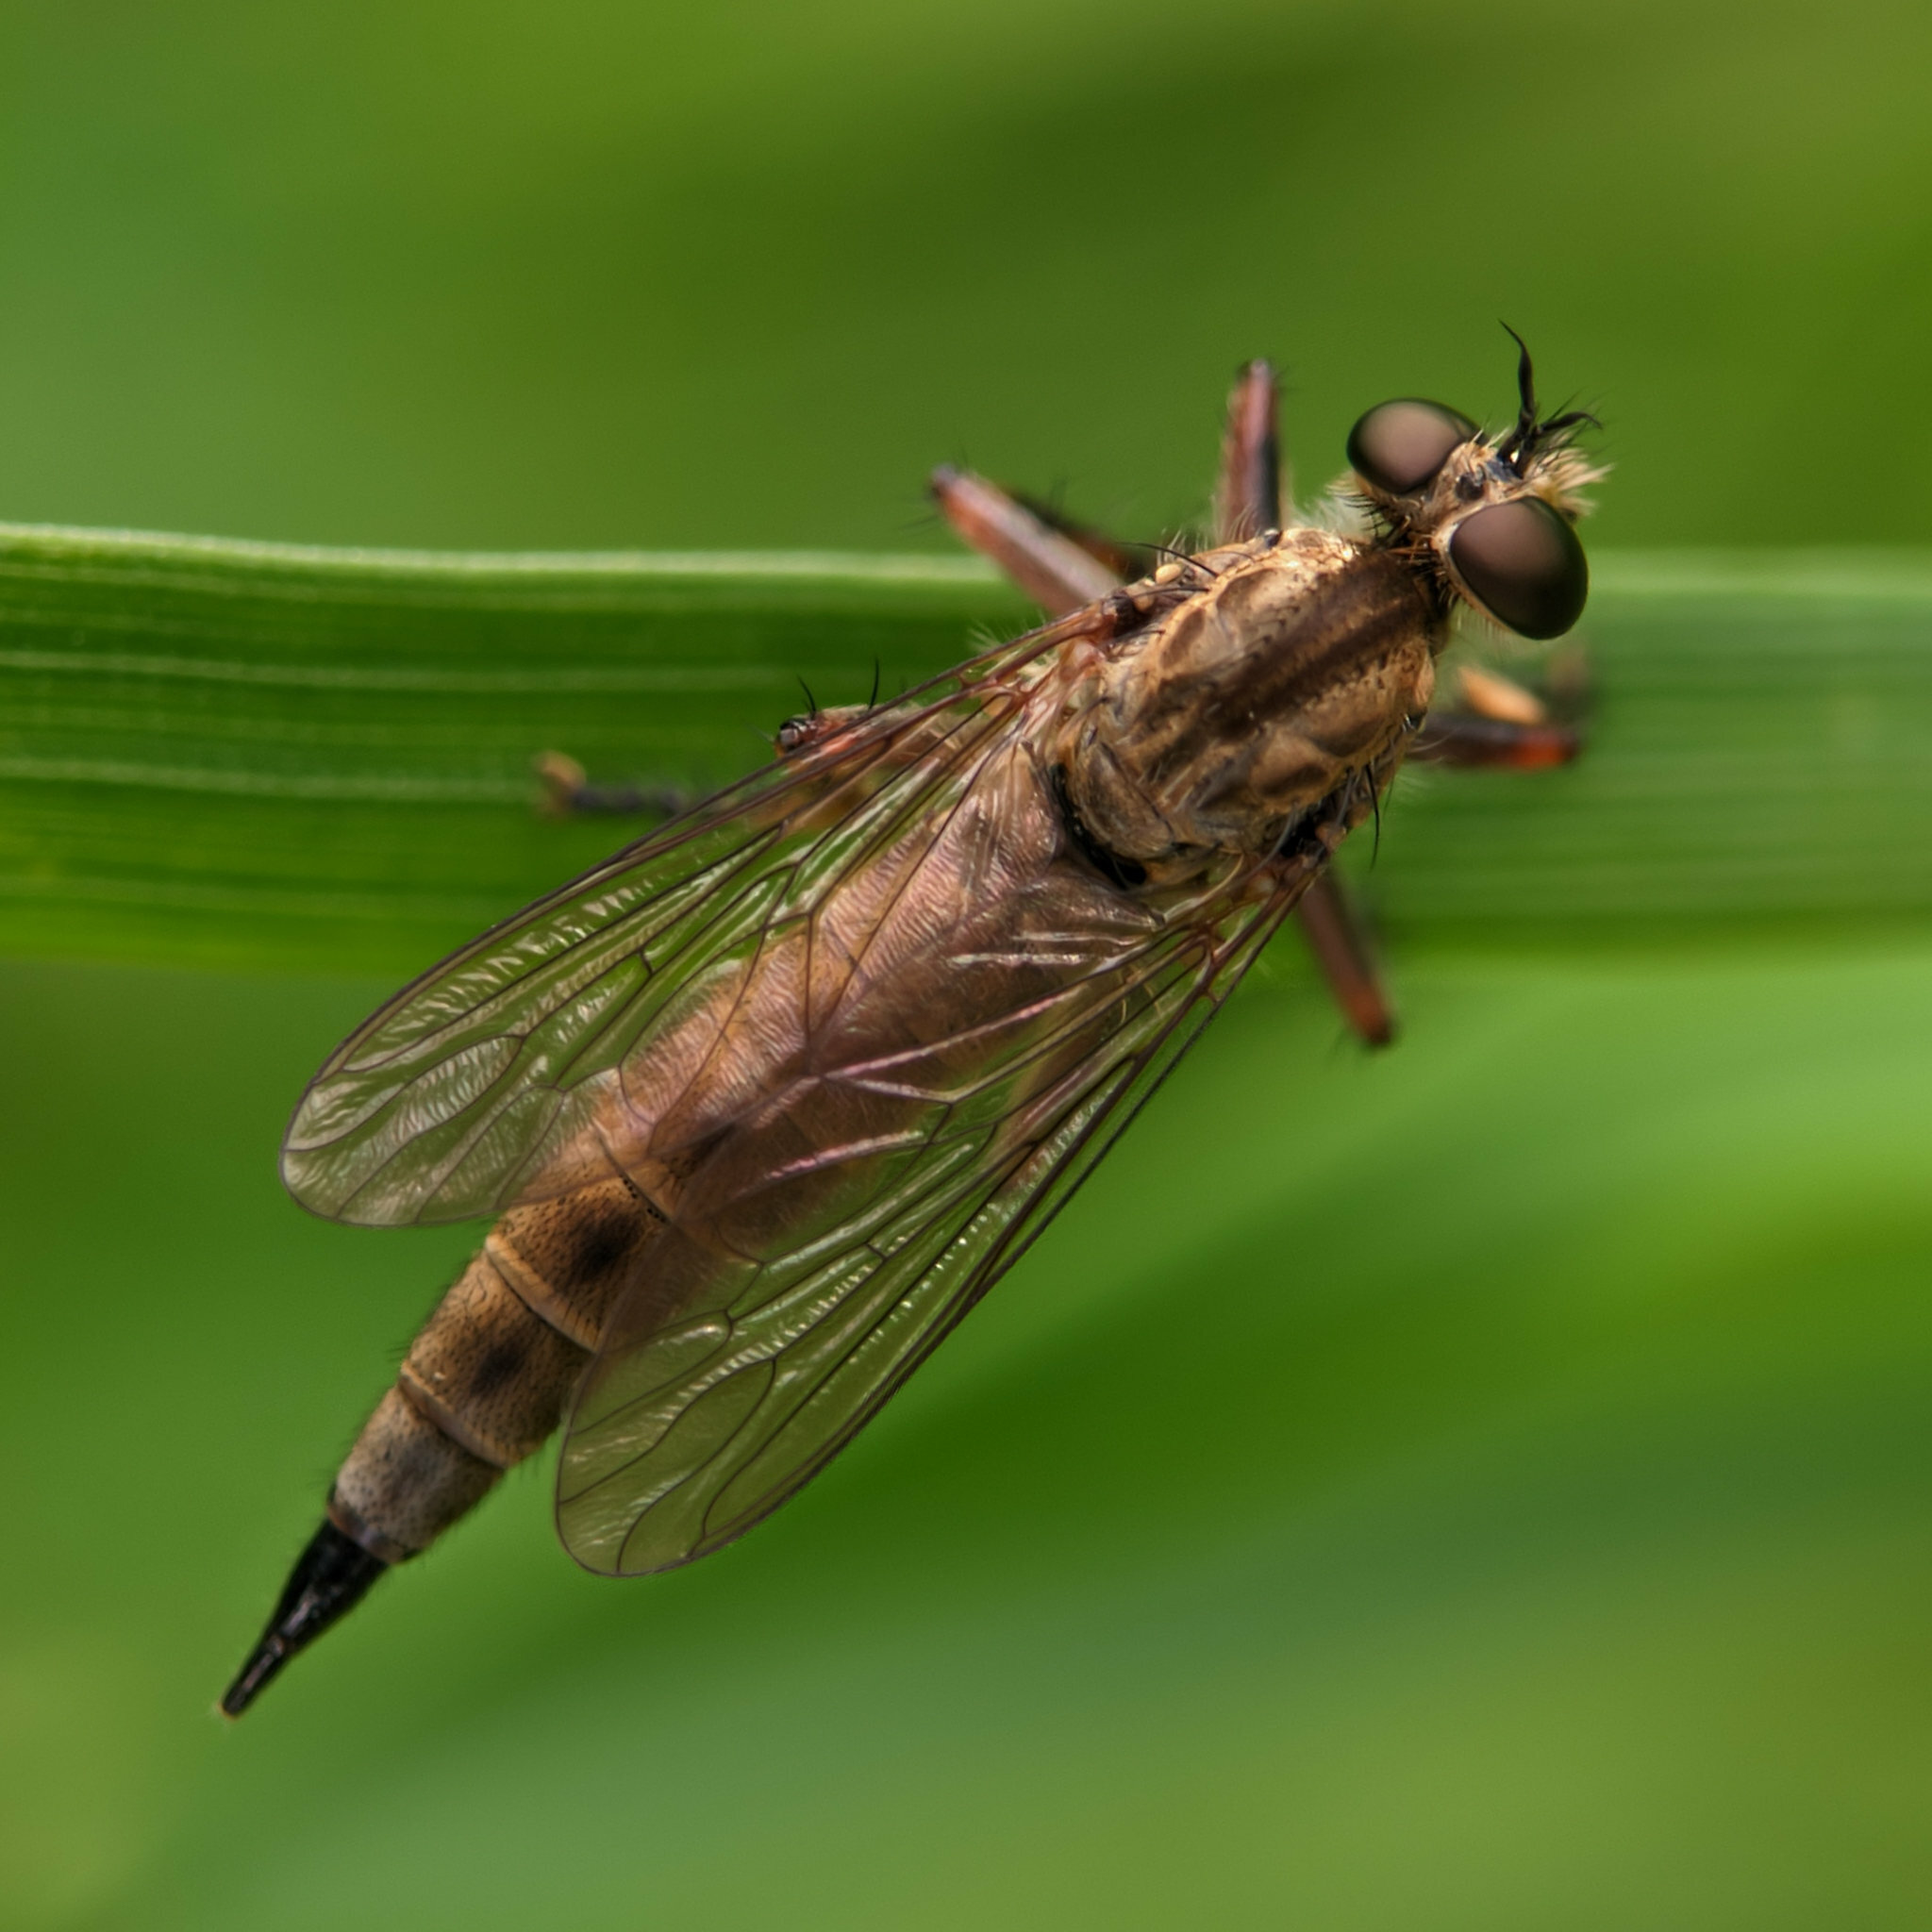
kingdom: Animalia
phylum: Arthropoda
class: Insecta
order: Diptera
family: Asilidae
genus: Epitriptus
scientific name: Epitriptus cingulatus
